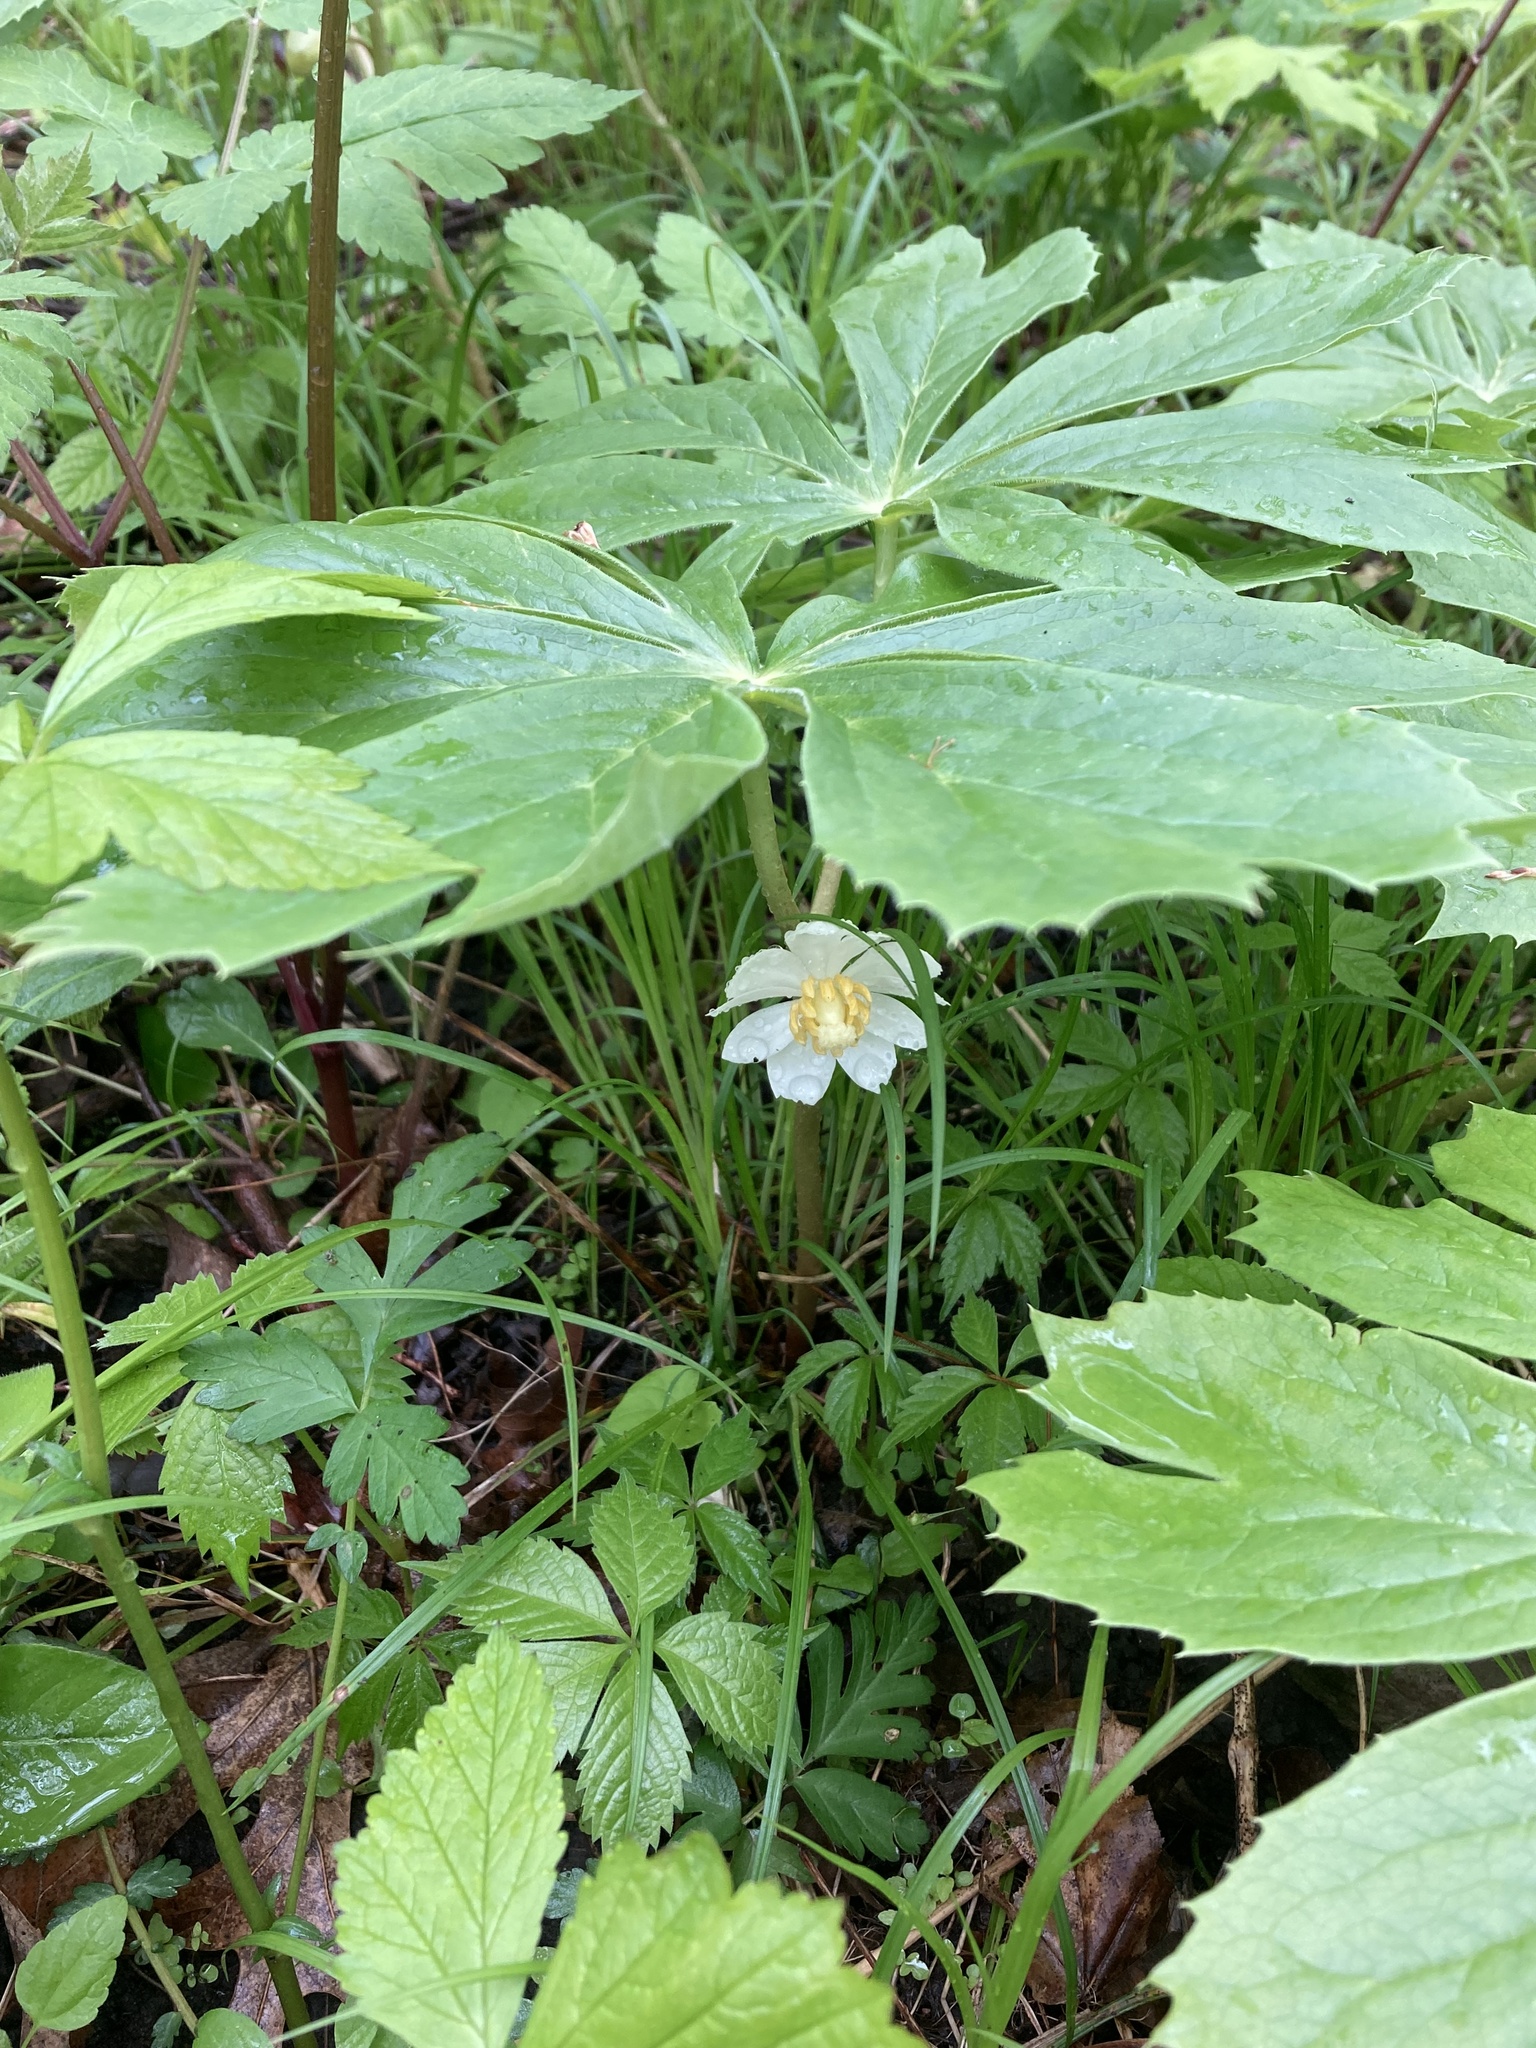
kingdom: Plantae
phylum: Tracheophyta
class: Magnoliopsida
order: Ranunculales
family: Berberidaceae
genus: Podophyllum
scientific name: Podophyllum peltatum
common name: Wild mandrake
